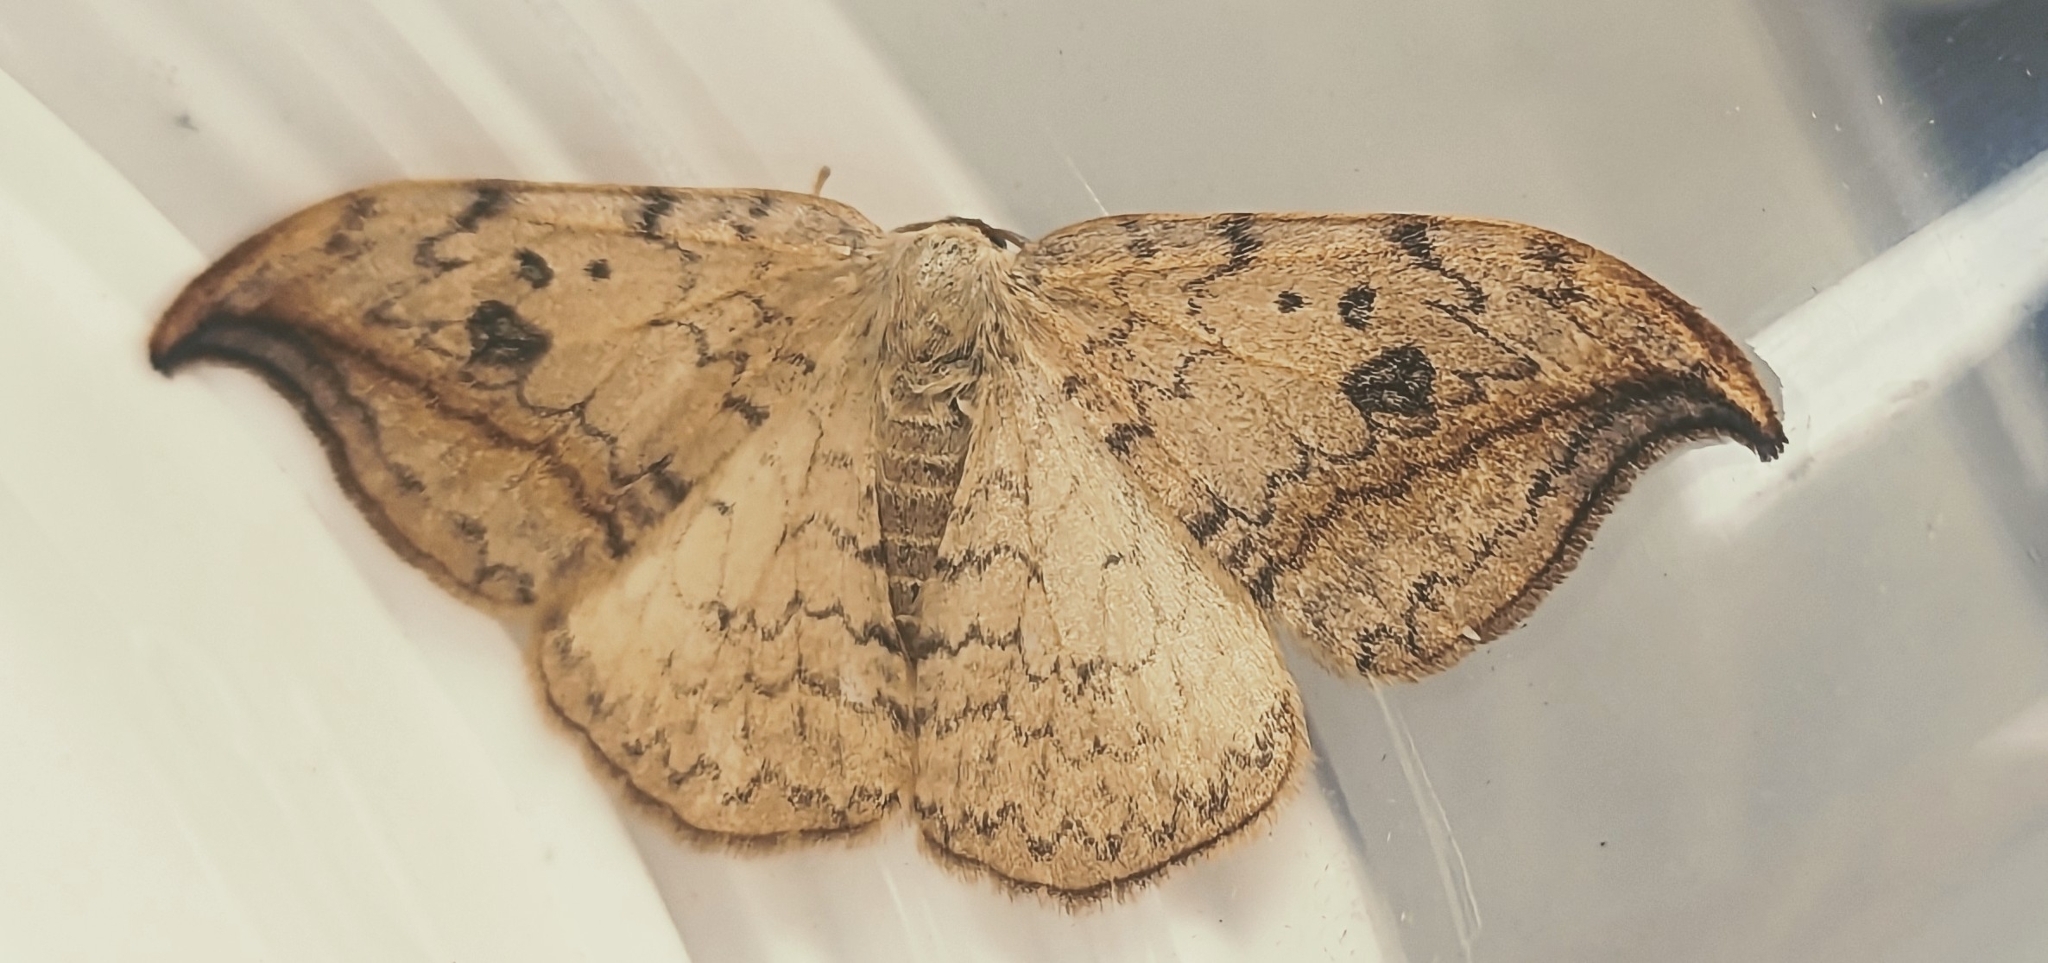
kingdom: Animalia
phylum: Arthropoda
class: Insecta
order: Lepidoptera
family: Drepanidae
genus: Drepana
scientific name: Drepana falcataria
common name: Pebble hook-tip
